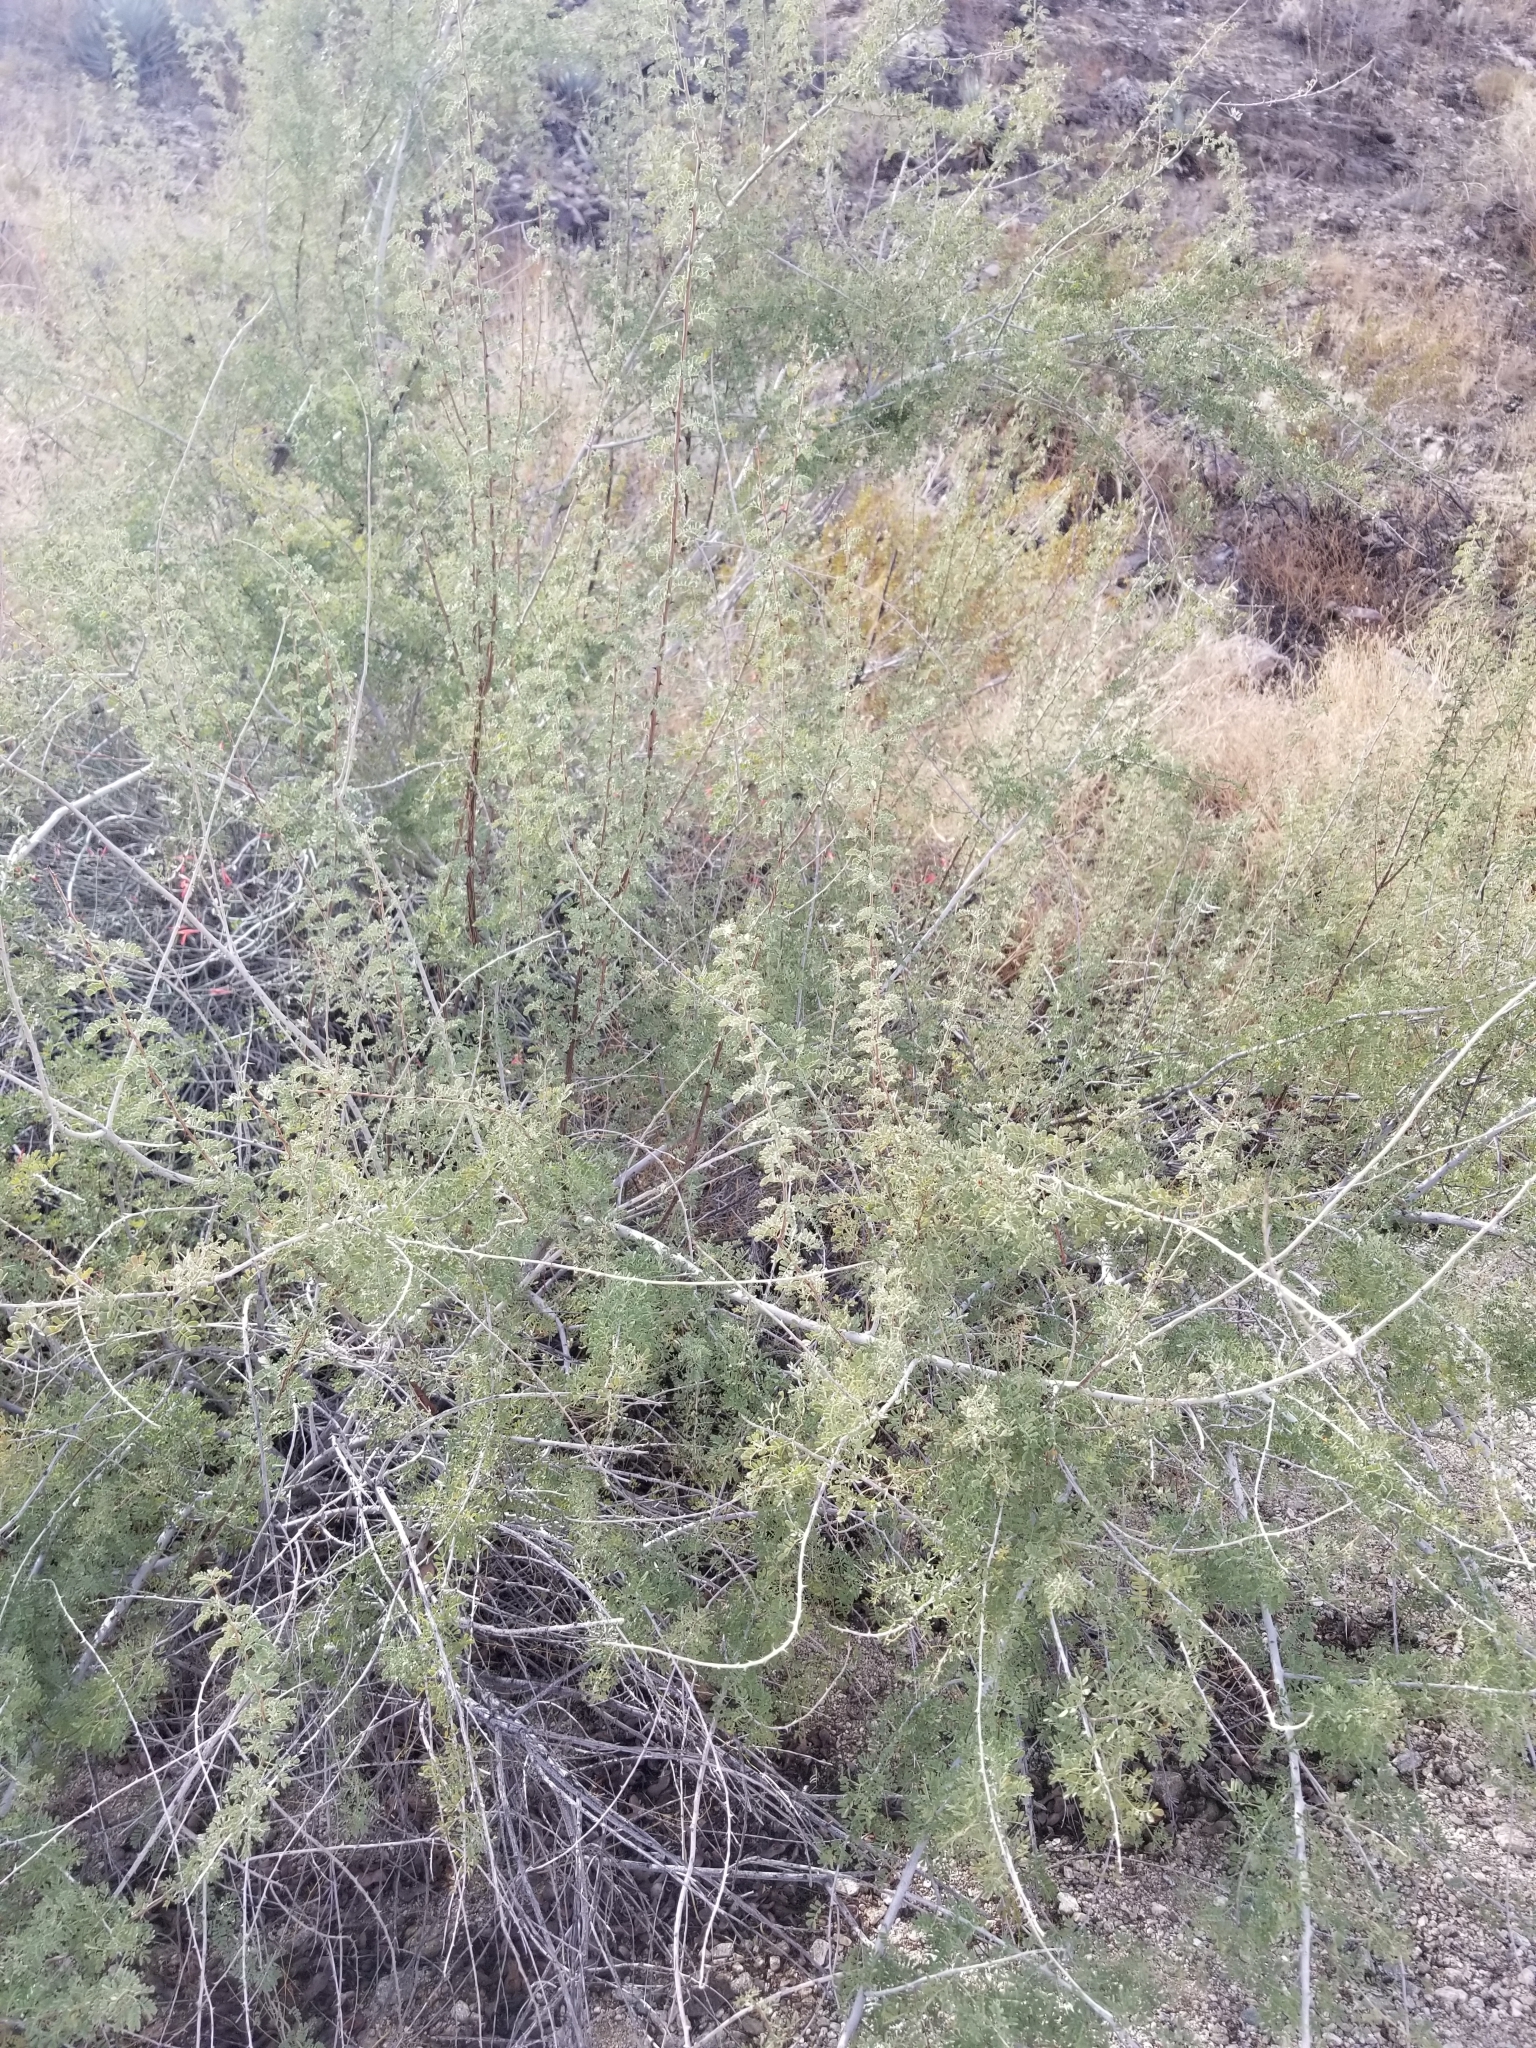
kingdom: Plantae
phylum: Tracheophyta
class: Magnoliopsida
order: Fabales
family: Fabaceae
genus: Senegalia
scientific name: Senegalia greggii
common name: Texas-mimosa
